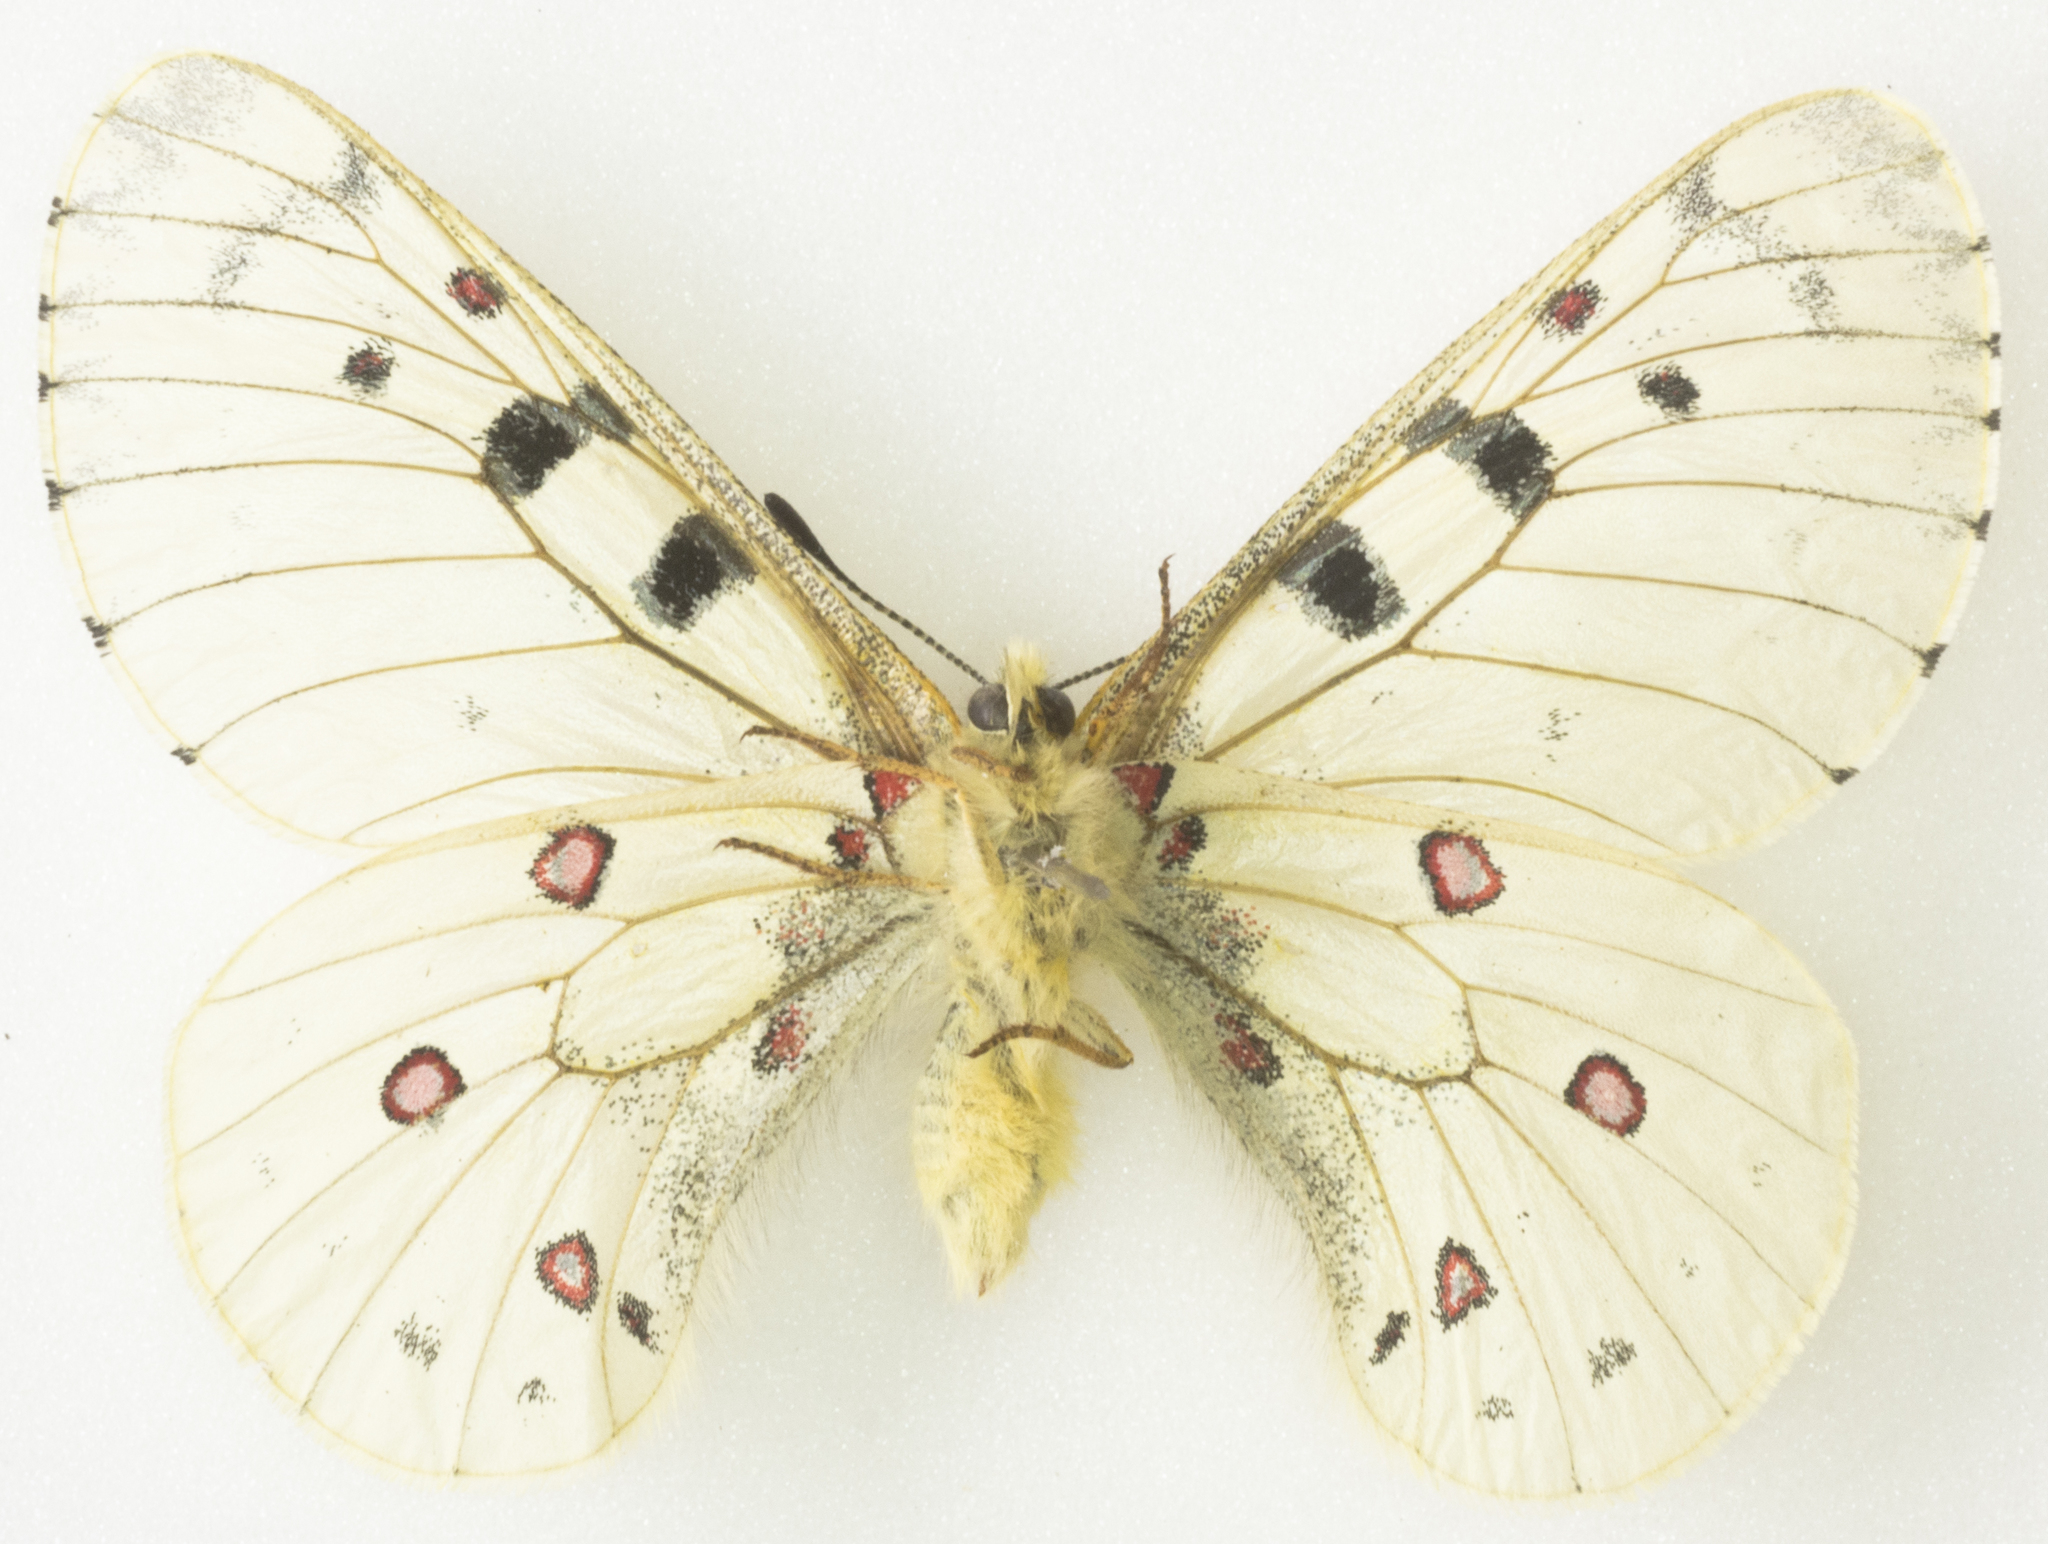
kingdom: Animalia
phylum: Arthropoda
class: Insecta
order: Lepidoptera
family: Papilionidae
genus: Parnassius
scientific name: Parnassius smintheus
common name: Mountain parnassian
